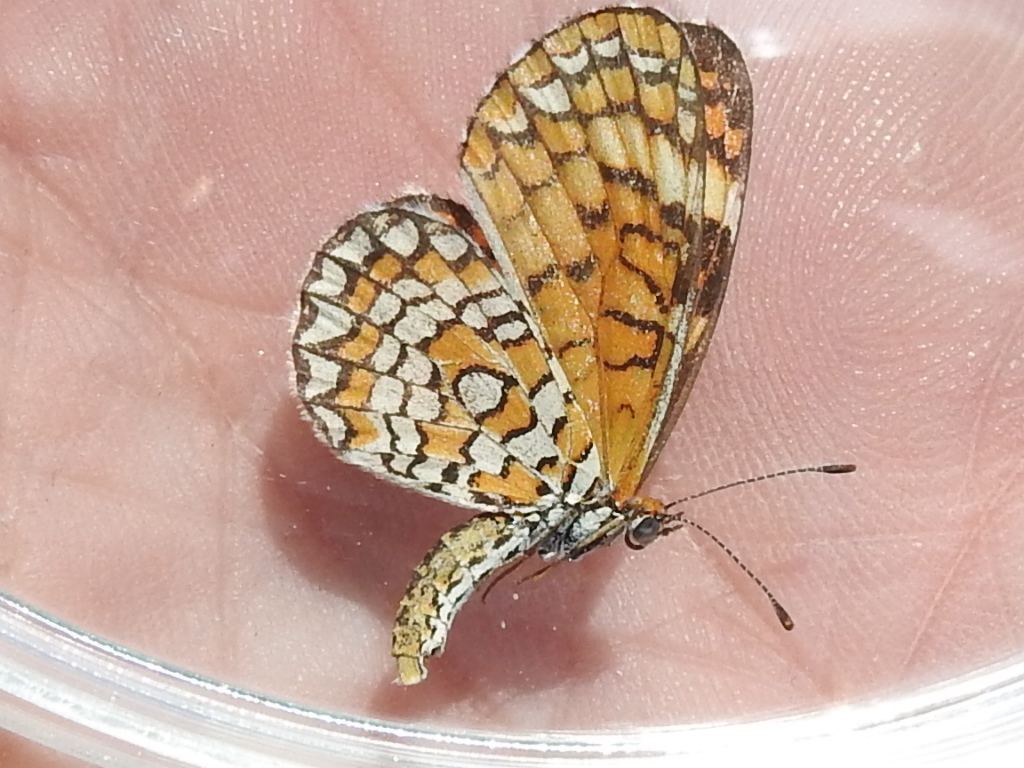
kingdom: Animalia
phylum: Arthropoda
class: Insecta
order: Lepidoptera
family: Nymphalidae
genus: Dymasia
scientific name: Dymasia dymas
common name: Tiny checkerspot
